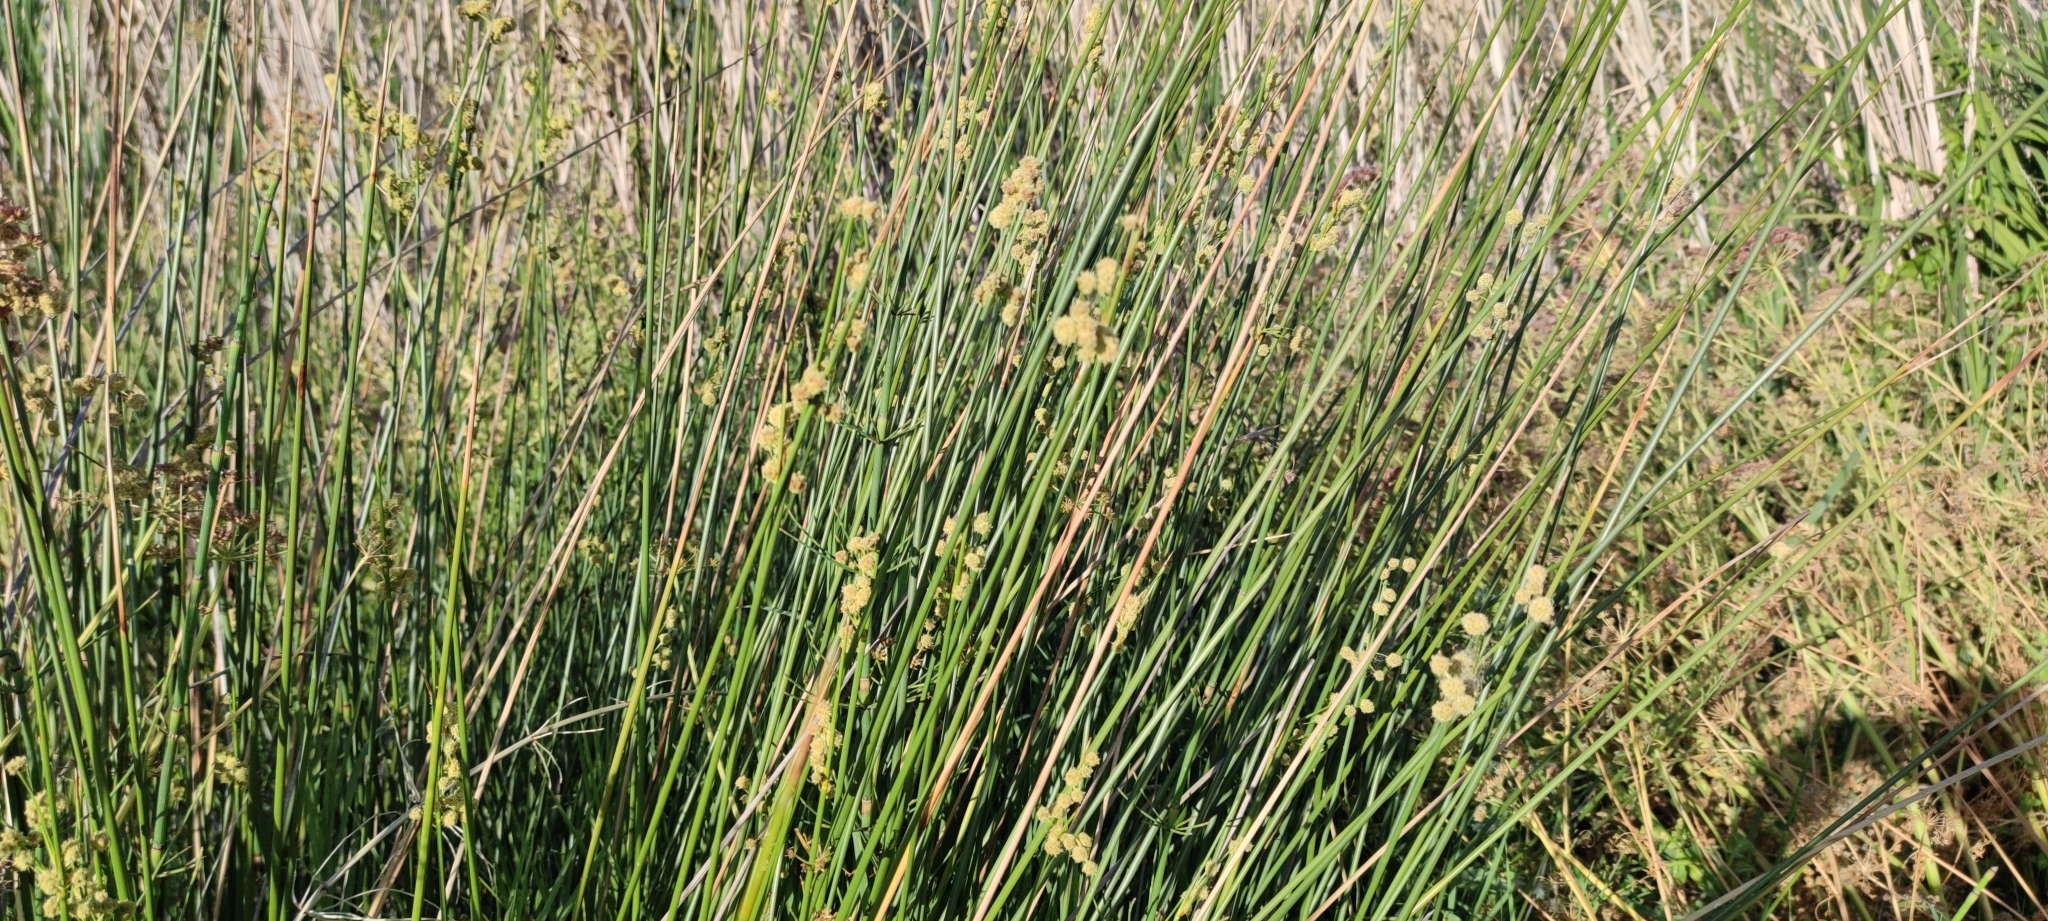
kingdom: Plantae
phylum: Tracheophyta
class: Liliopsida
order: Poales
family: Cyperaceae
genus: Scirpoides
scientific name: Scirpoides holoschoenus
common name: Round-headed club-rush
